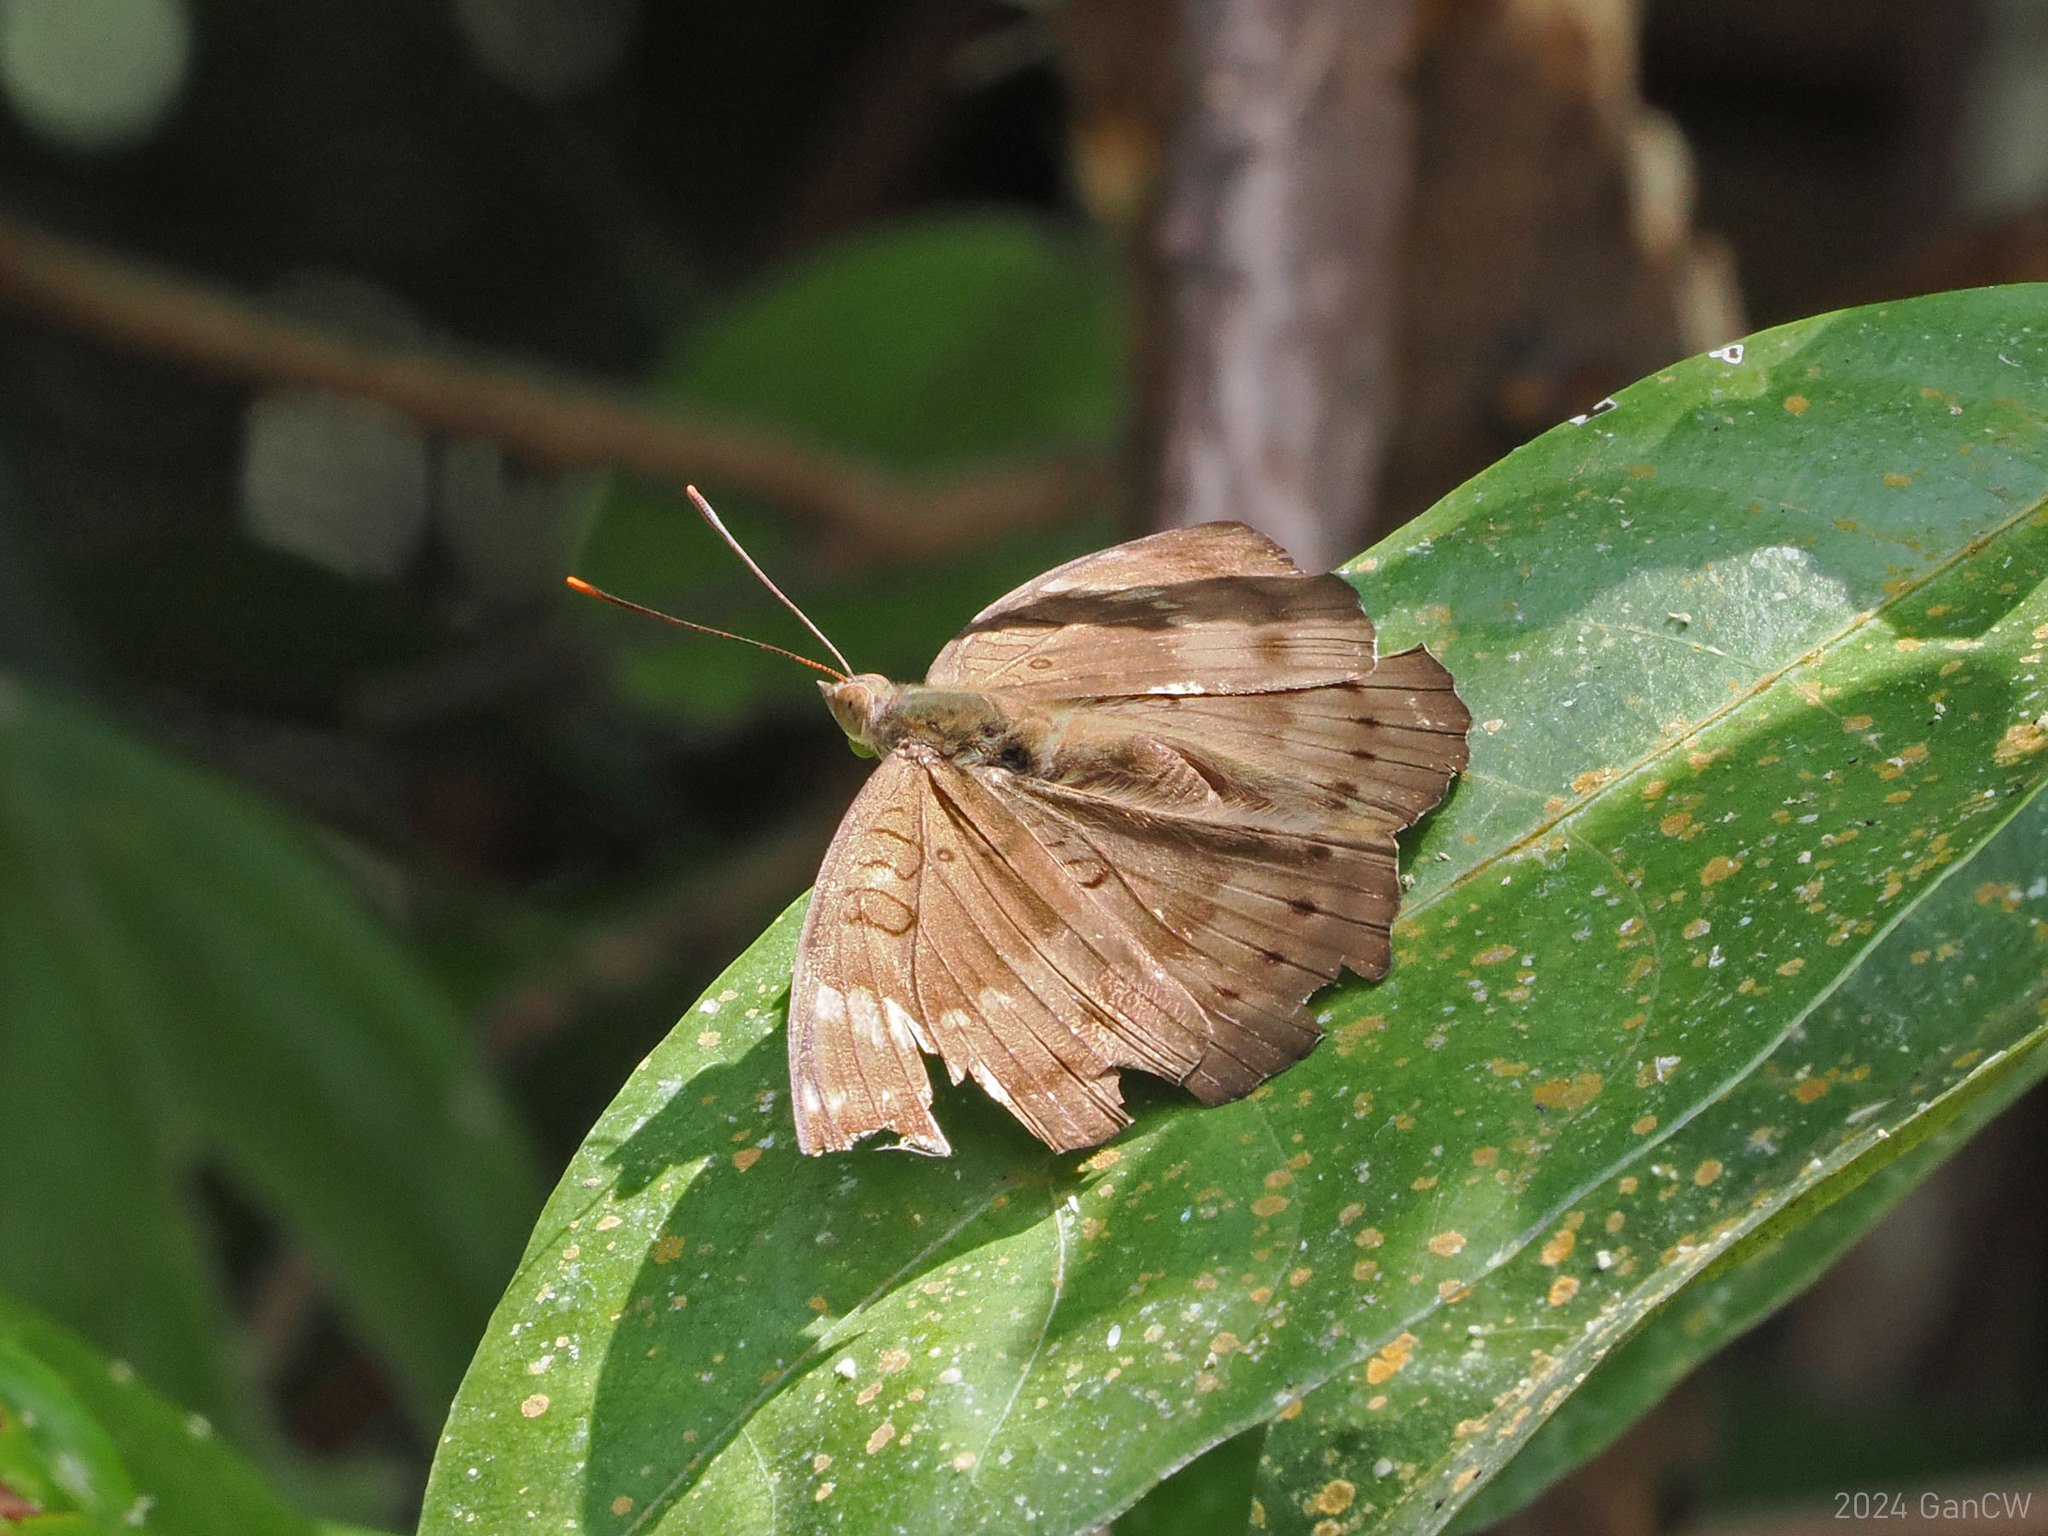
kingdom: Animalia
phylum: Arthropoda
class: Insecta
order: Lepidoptera
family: Nymphalidae
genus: Euthalia
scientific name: Euthalia aconthea
